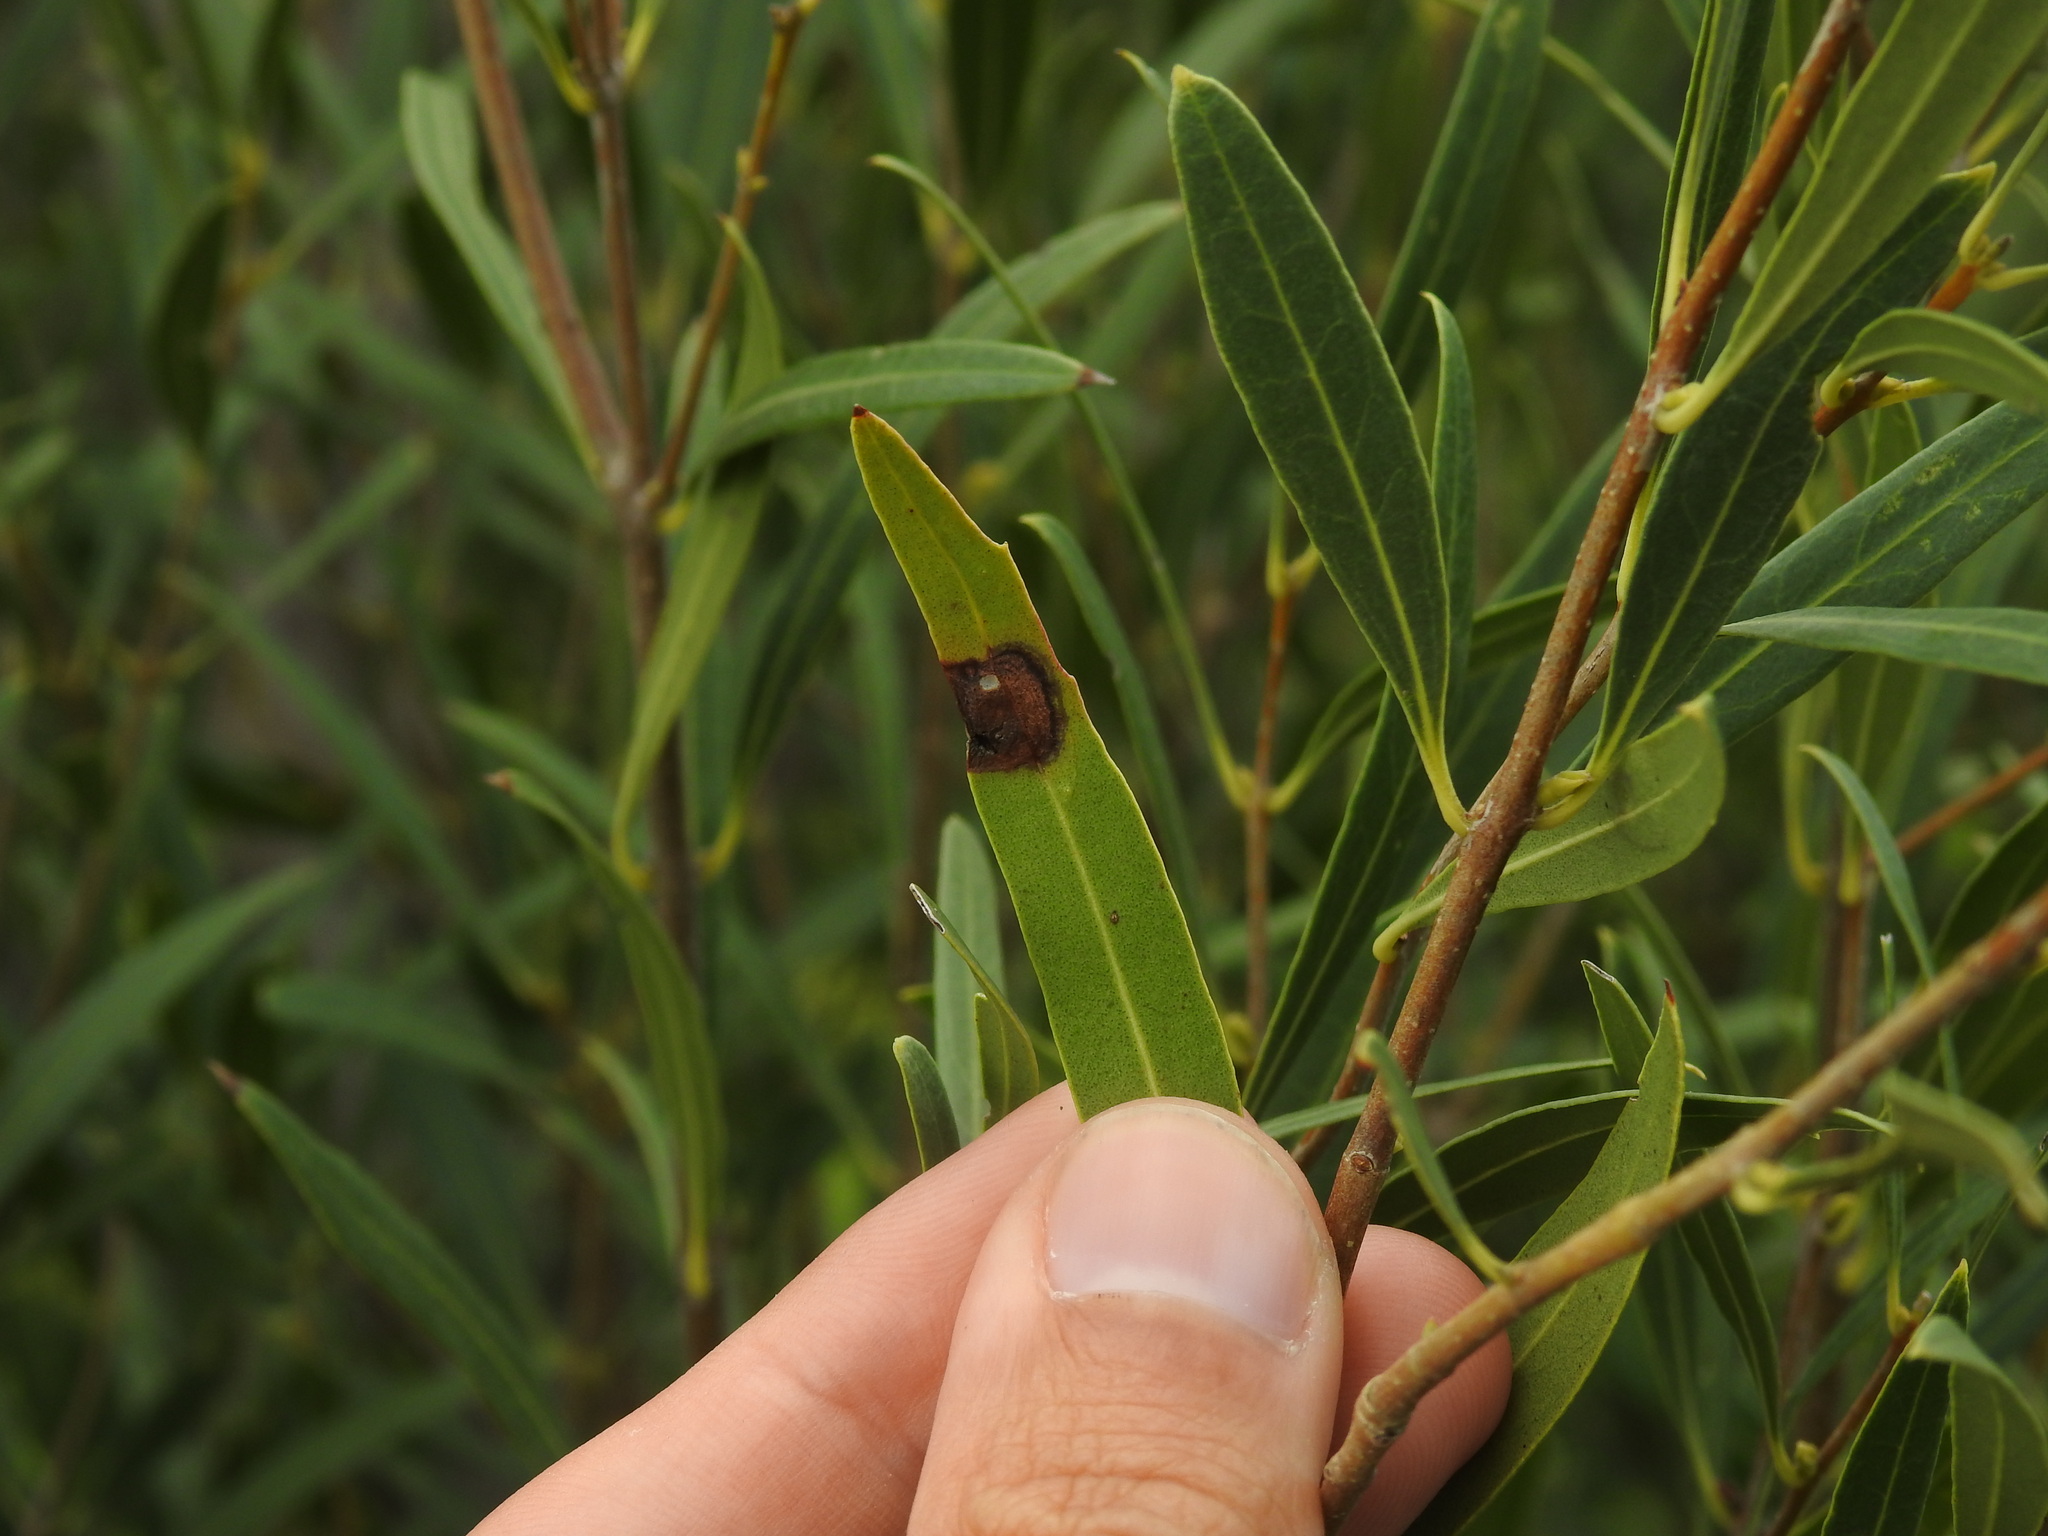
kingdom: Animalia
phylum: Arthropoda
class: Insecta
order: Diptera
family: Cecidomyiidae
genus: Braueriella
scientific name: Braueriella phillyreae
